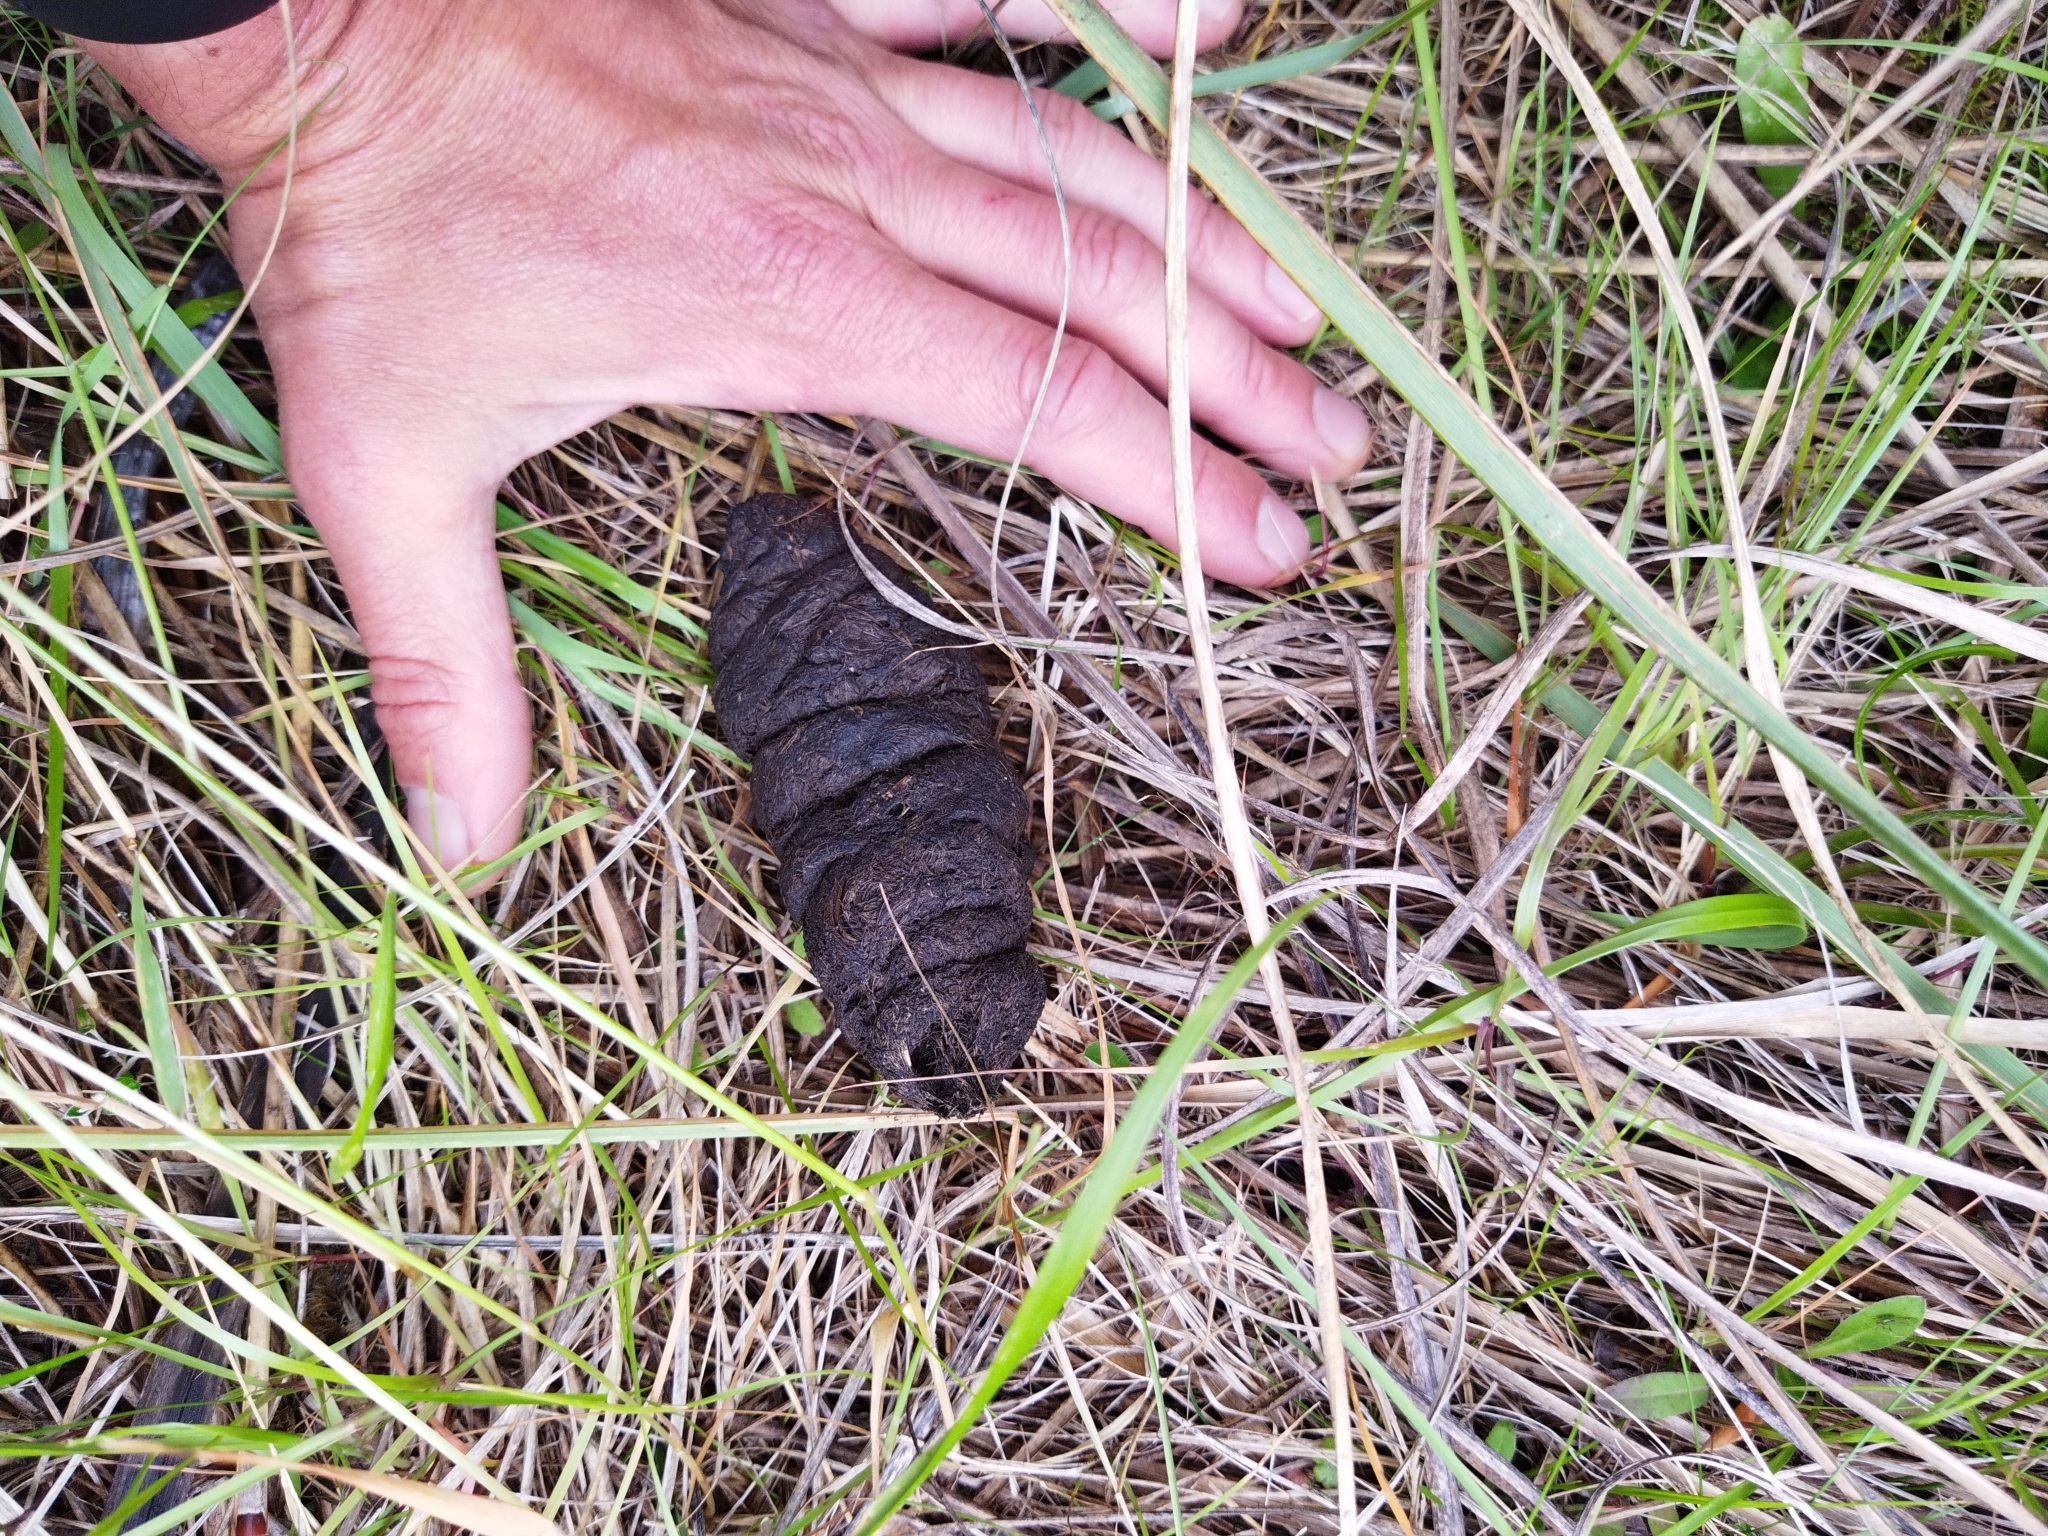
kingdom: Animalia
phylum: Chordata
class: Mammalia
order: Artiodactyla
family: Suidae
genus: Sus
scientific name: Sus scrofa
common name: Wild boar
